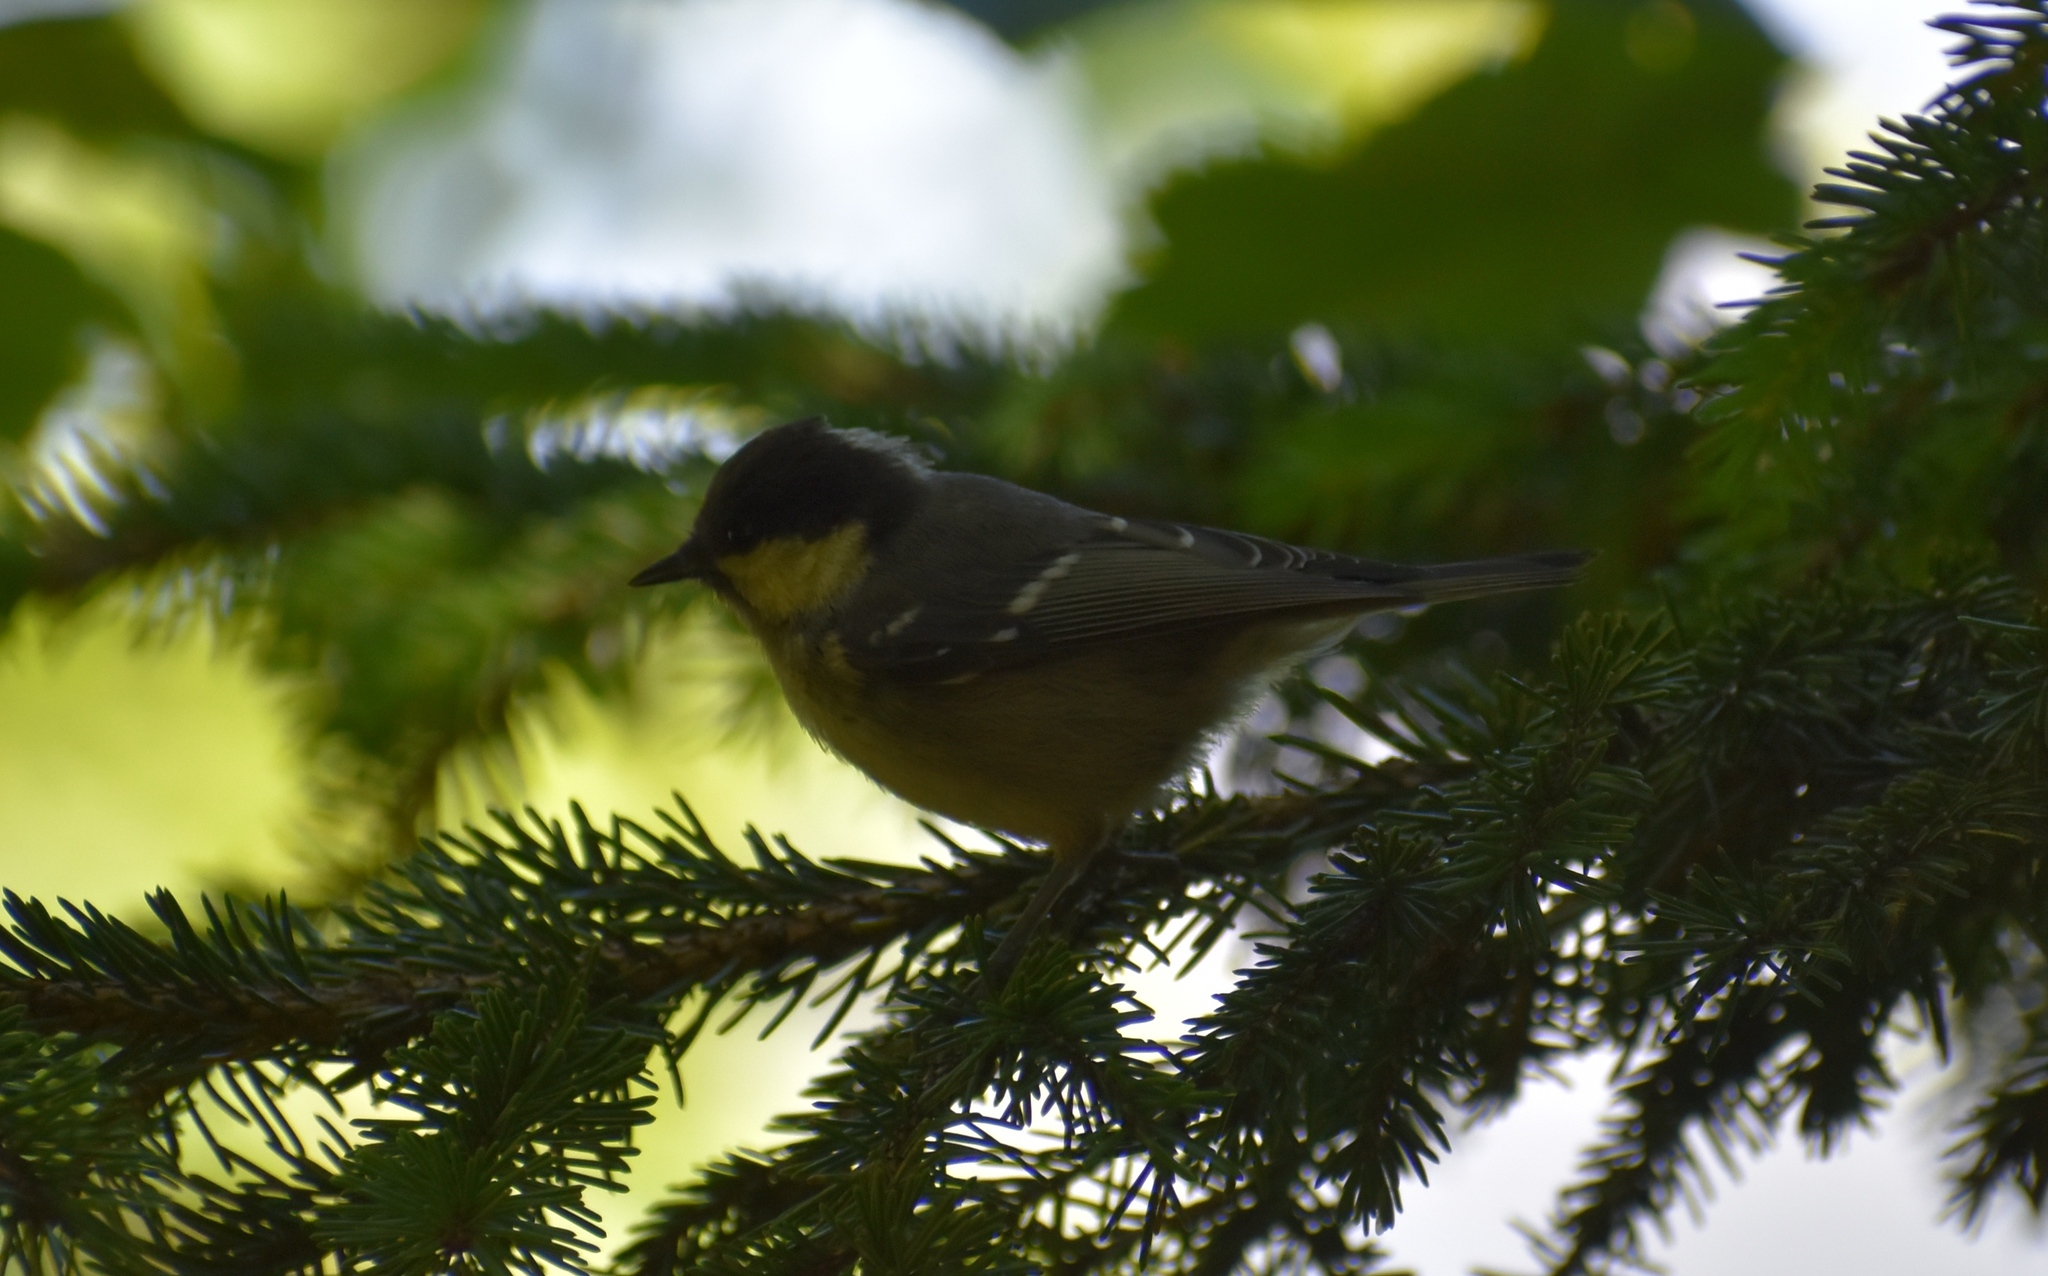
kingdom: Animalia
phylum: Chordata
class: Aves
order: Passeriformes
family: Paridae
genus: Periparus
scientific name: Periparus ater
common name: Coal tit
